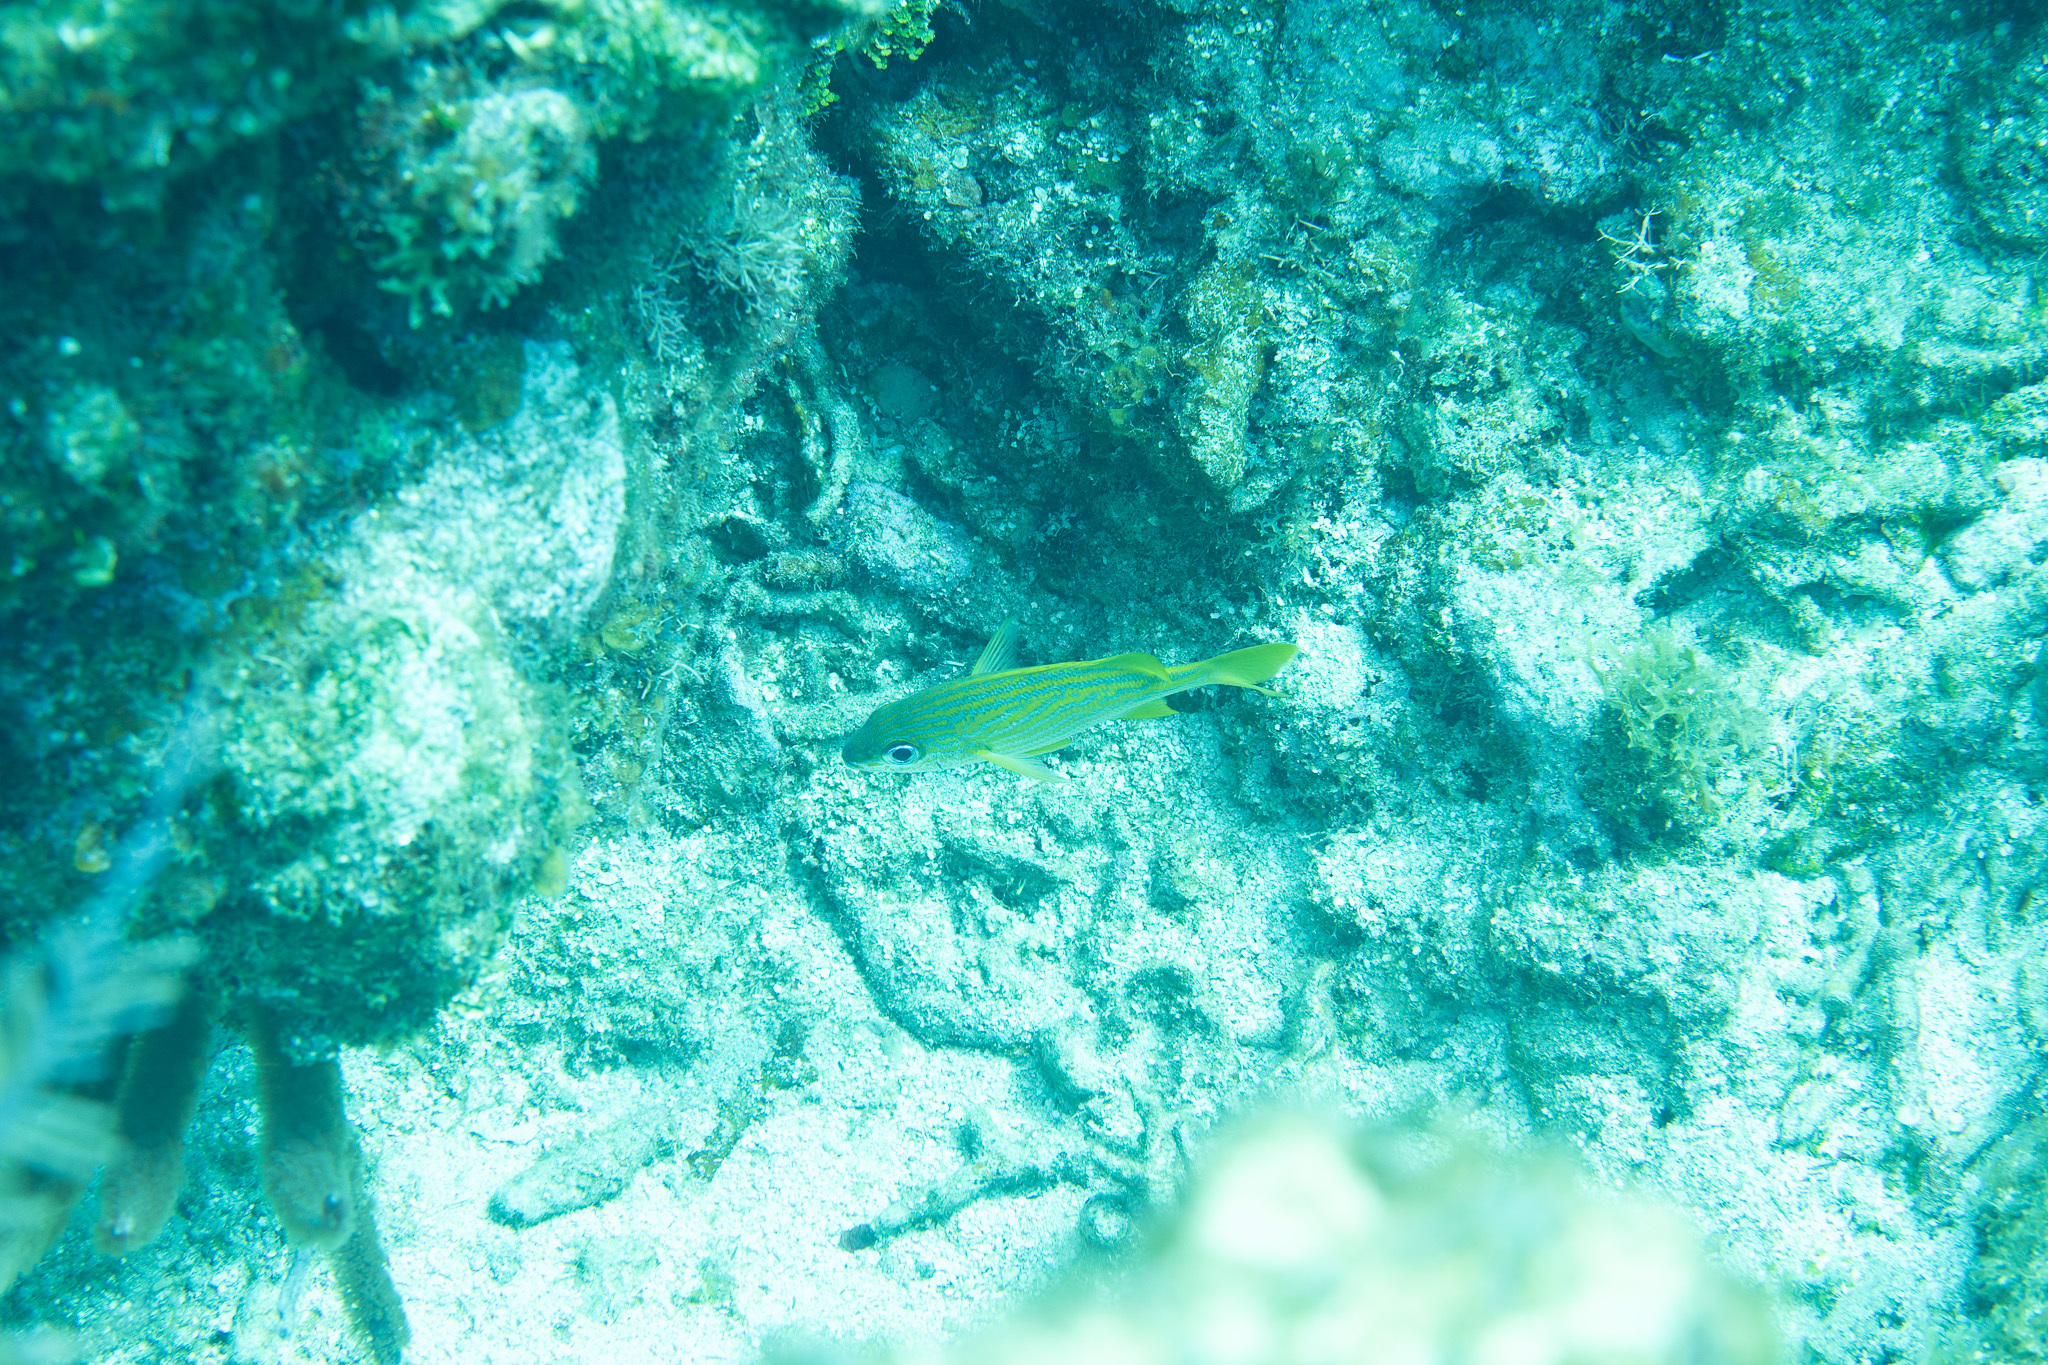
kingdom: Animalia
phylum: Chordata
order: Perciformes
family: Haemulidae
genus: Haemulon
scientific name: Haemulon flavolineatum
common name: French grunt
